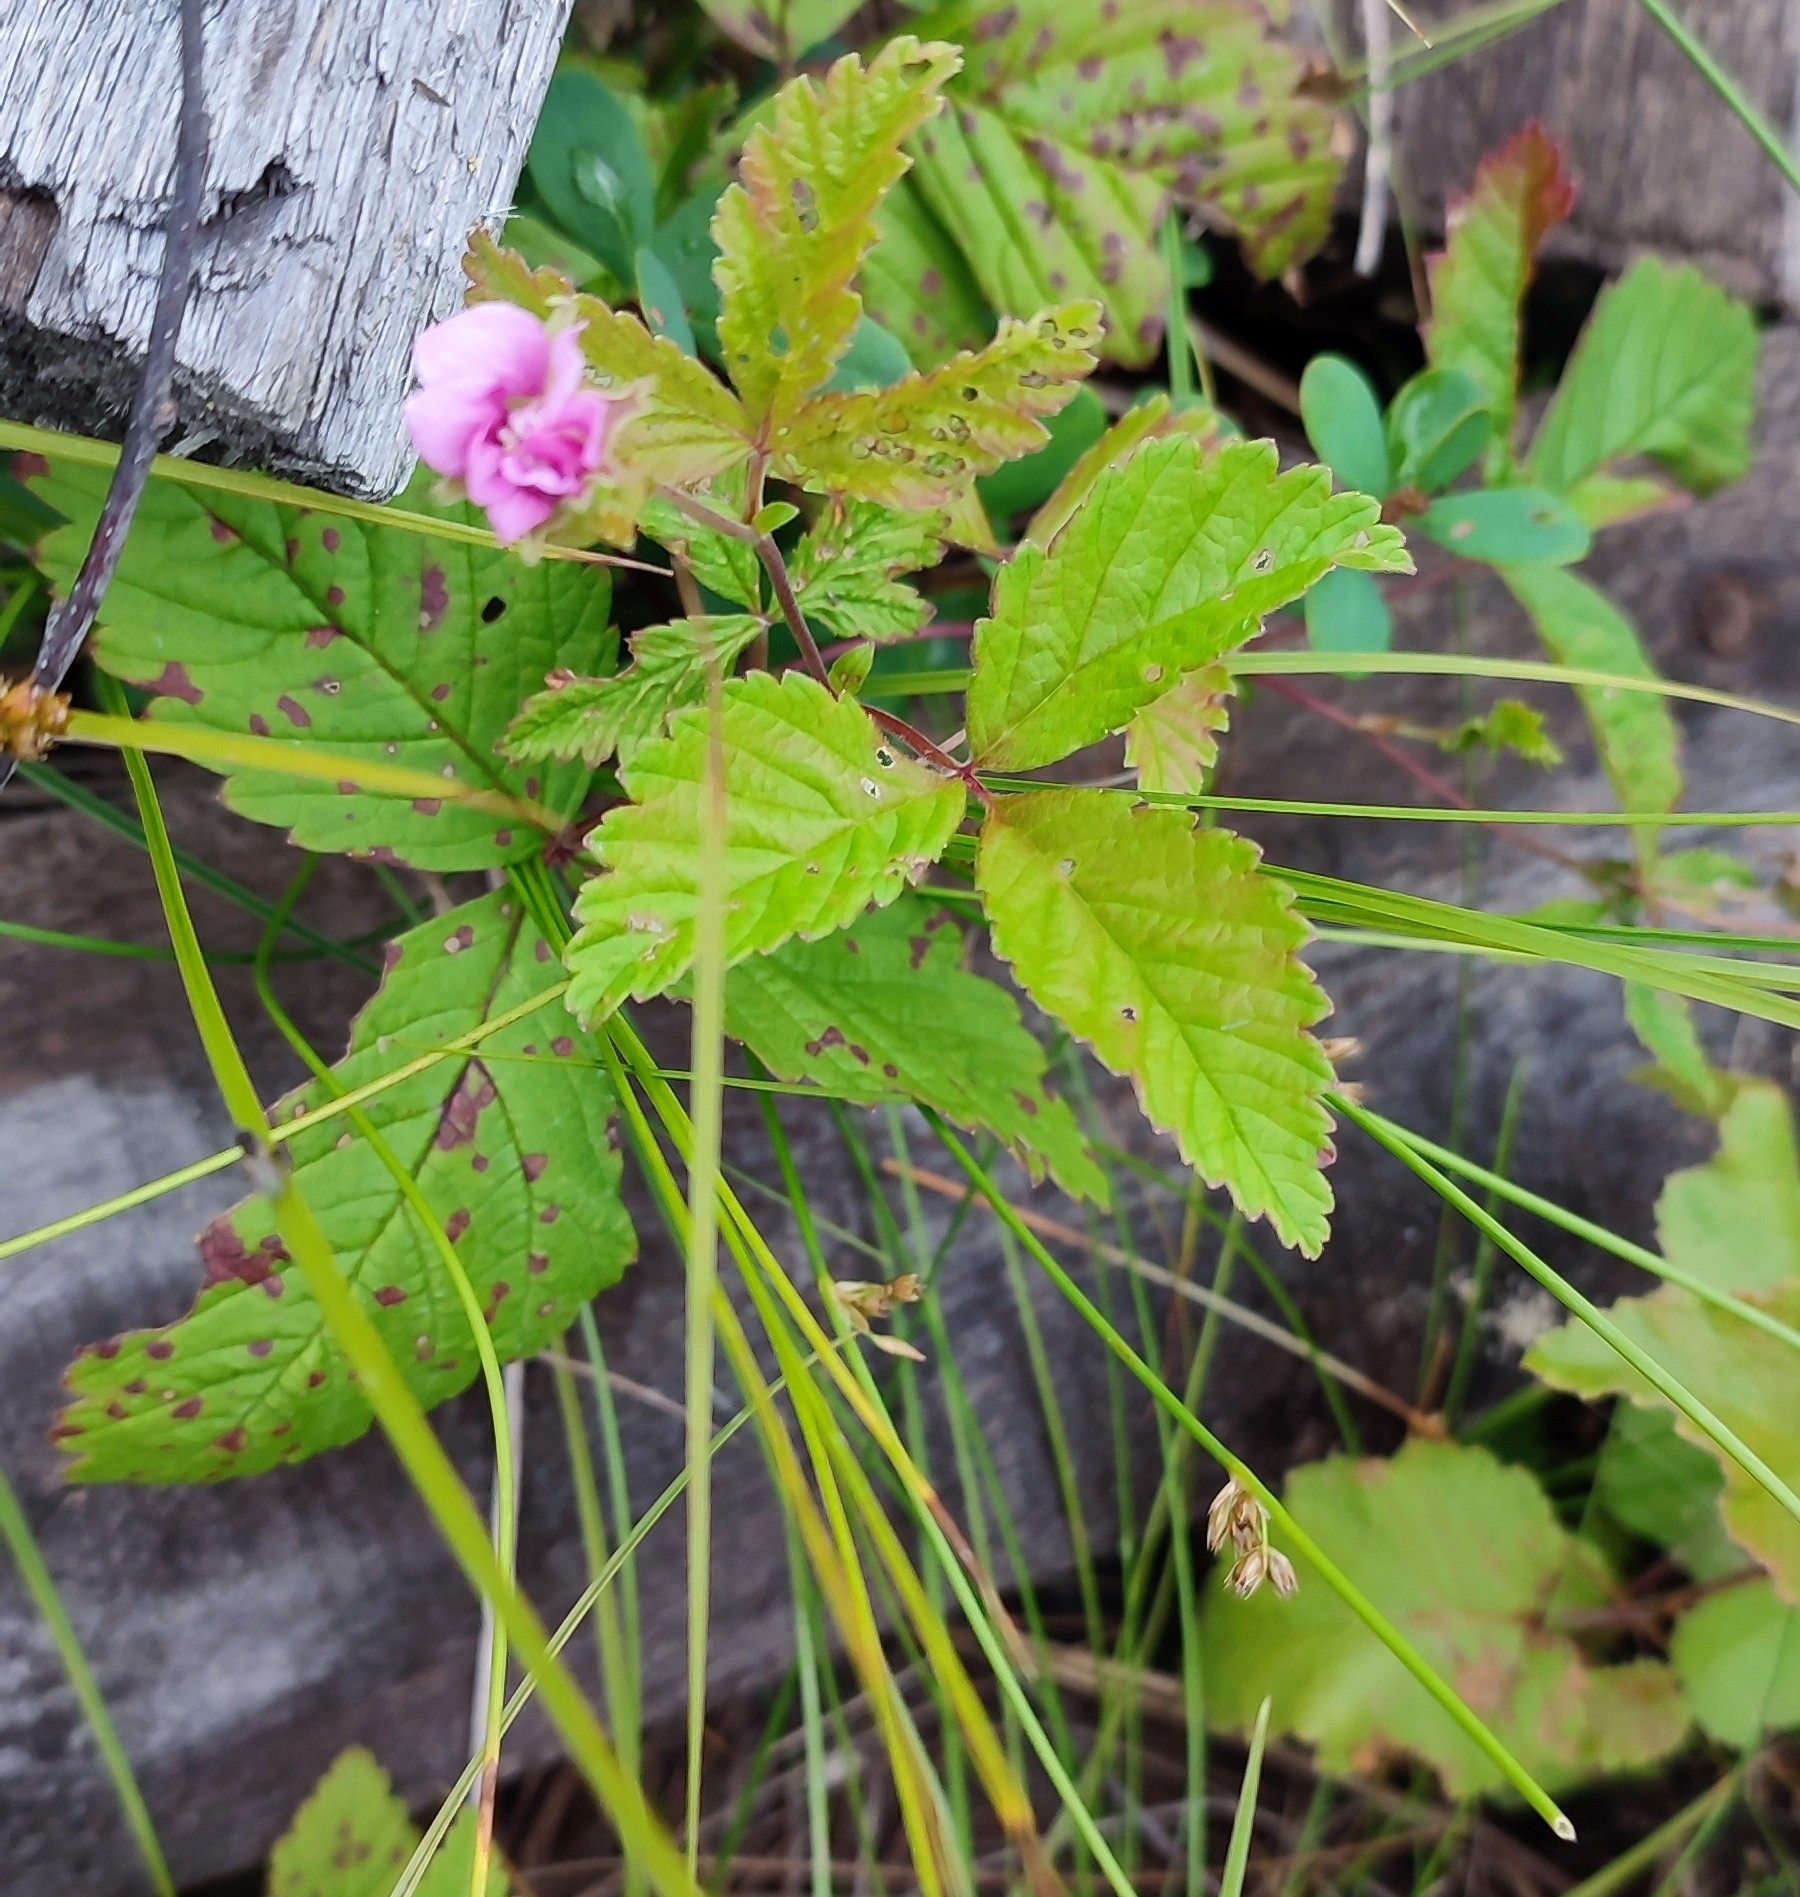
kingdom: Plantae
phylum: Tracheophyta
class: Magnoliopsida
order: Rosales
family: Rosaceae
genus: Rubus
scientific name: Rubus arcticus
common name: Arctic bramble
